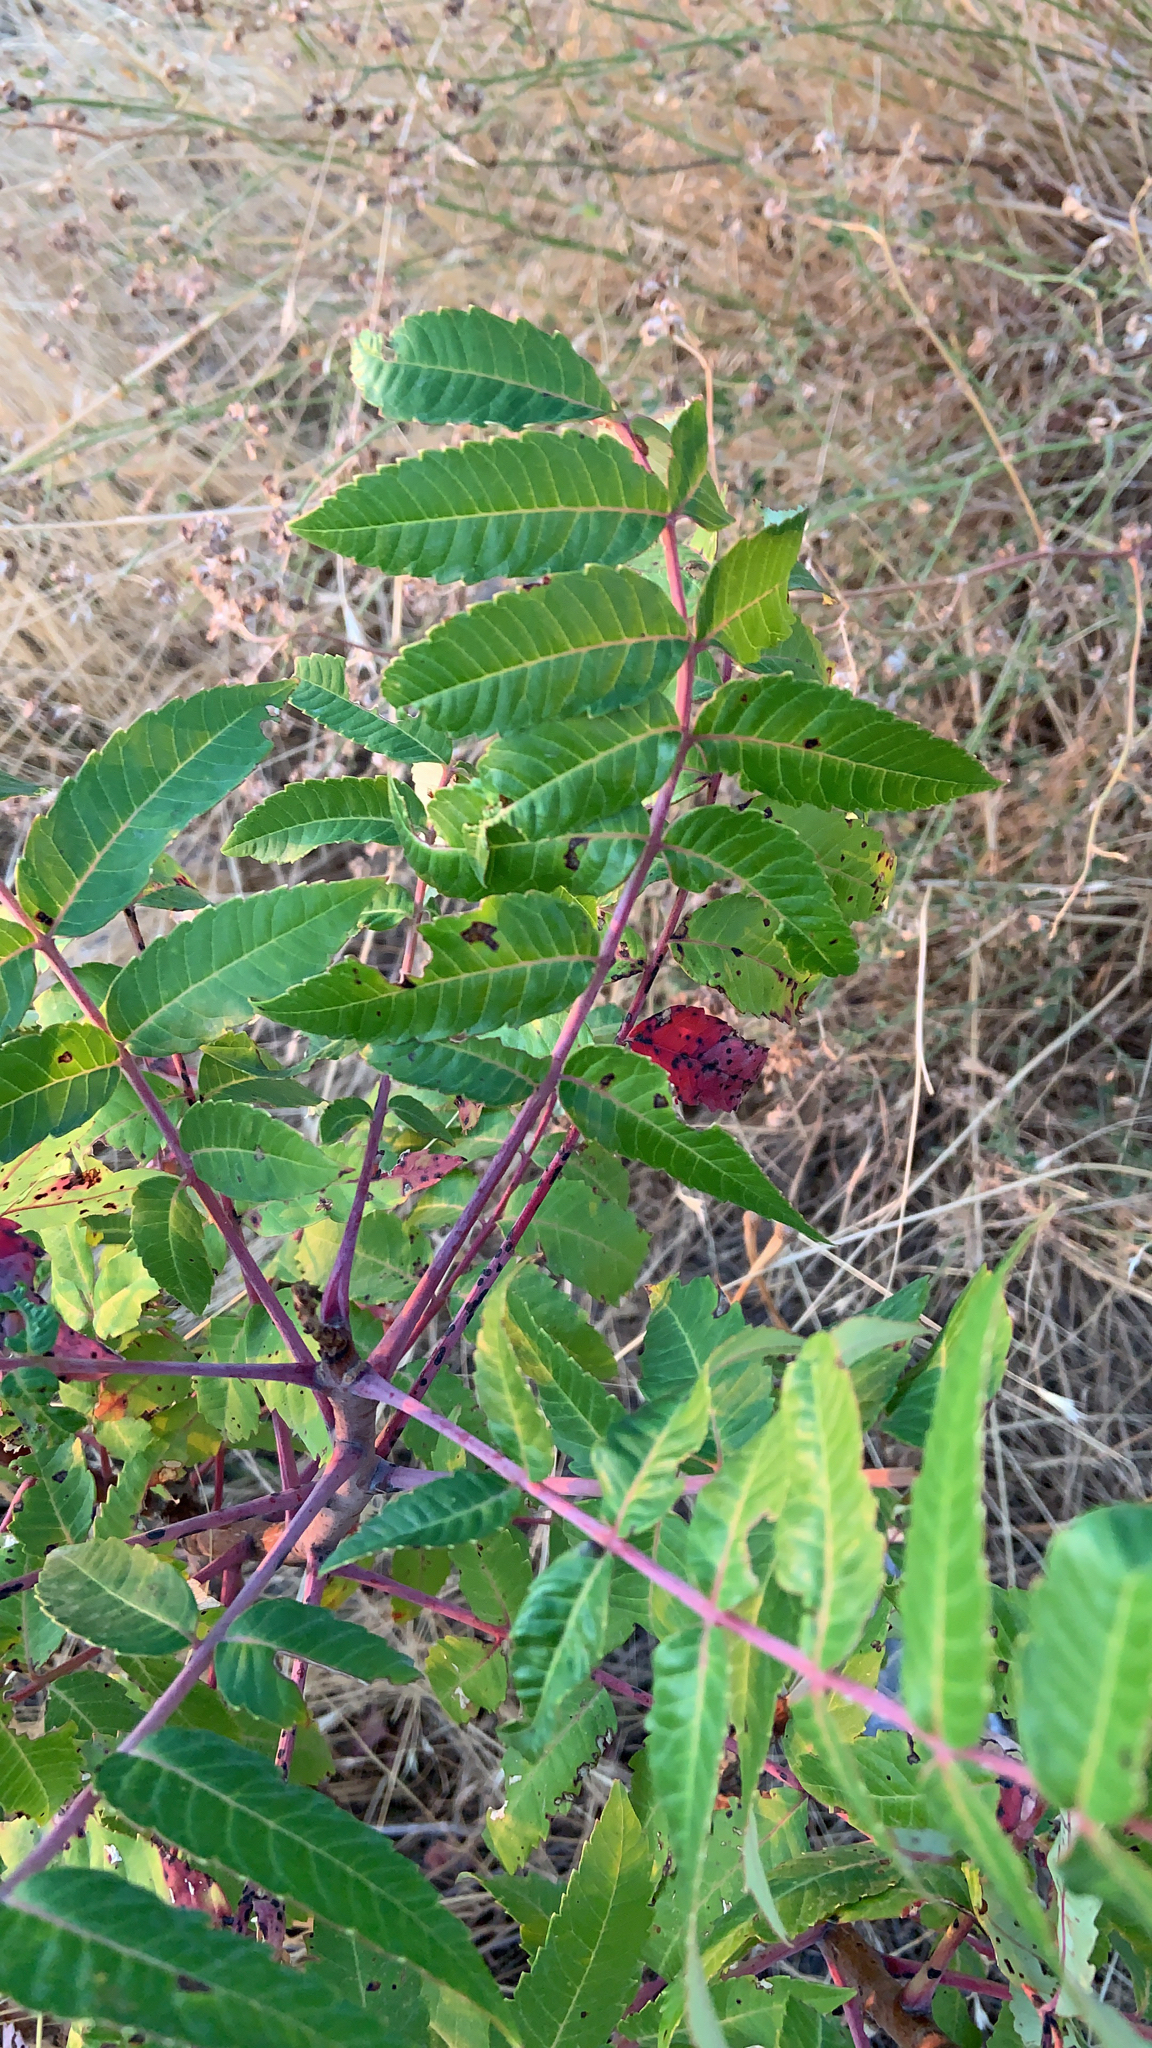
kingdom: Plantae
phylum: Tracheophyta
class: Magnoliopsida
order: Sapindales
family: Anacardiaceae
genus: Rhus
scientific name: Rhus glabra
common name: Scarlet sumac
